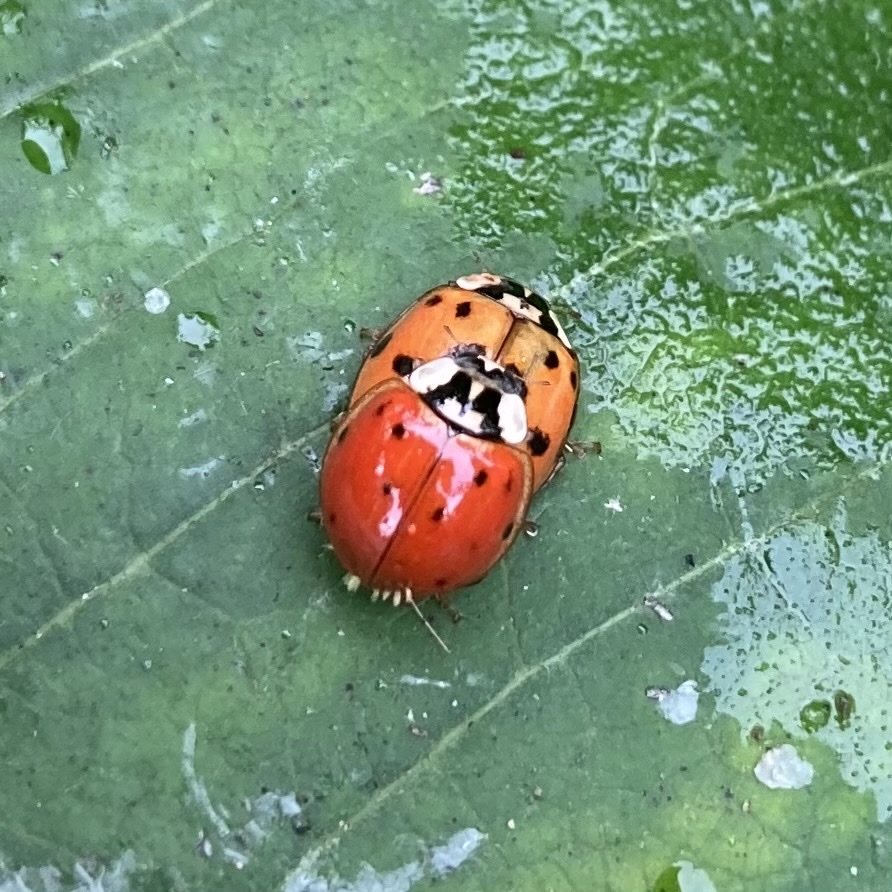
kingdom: Animalia
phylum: Arthropoda
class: Insecta
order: Coleoptera
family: Coccinellidae
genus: Harmonia
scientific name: Harmonia axyridis
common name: Harlequin ladybird
